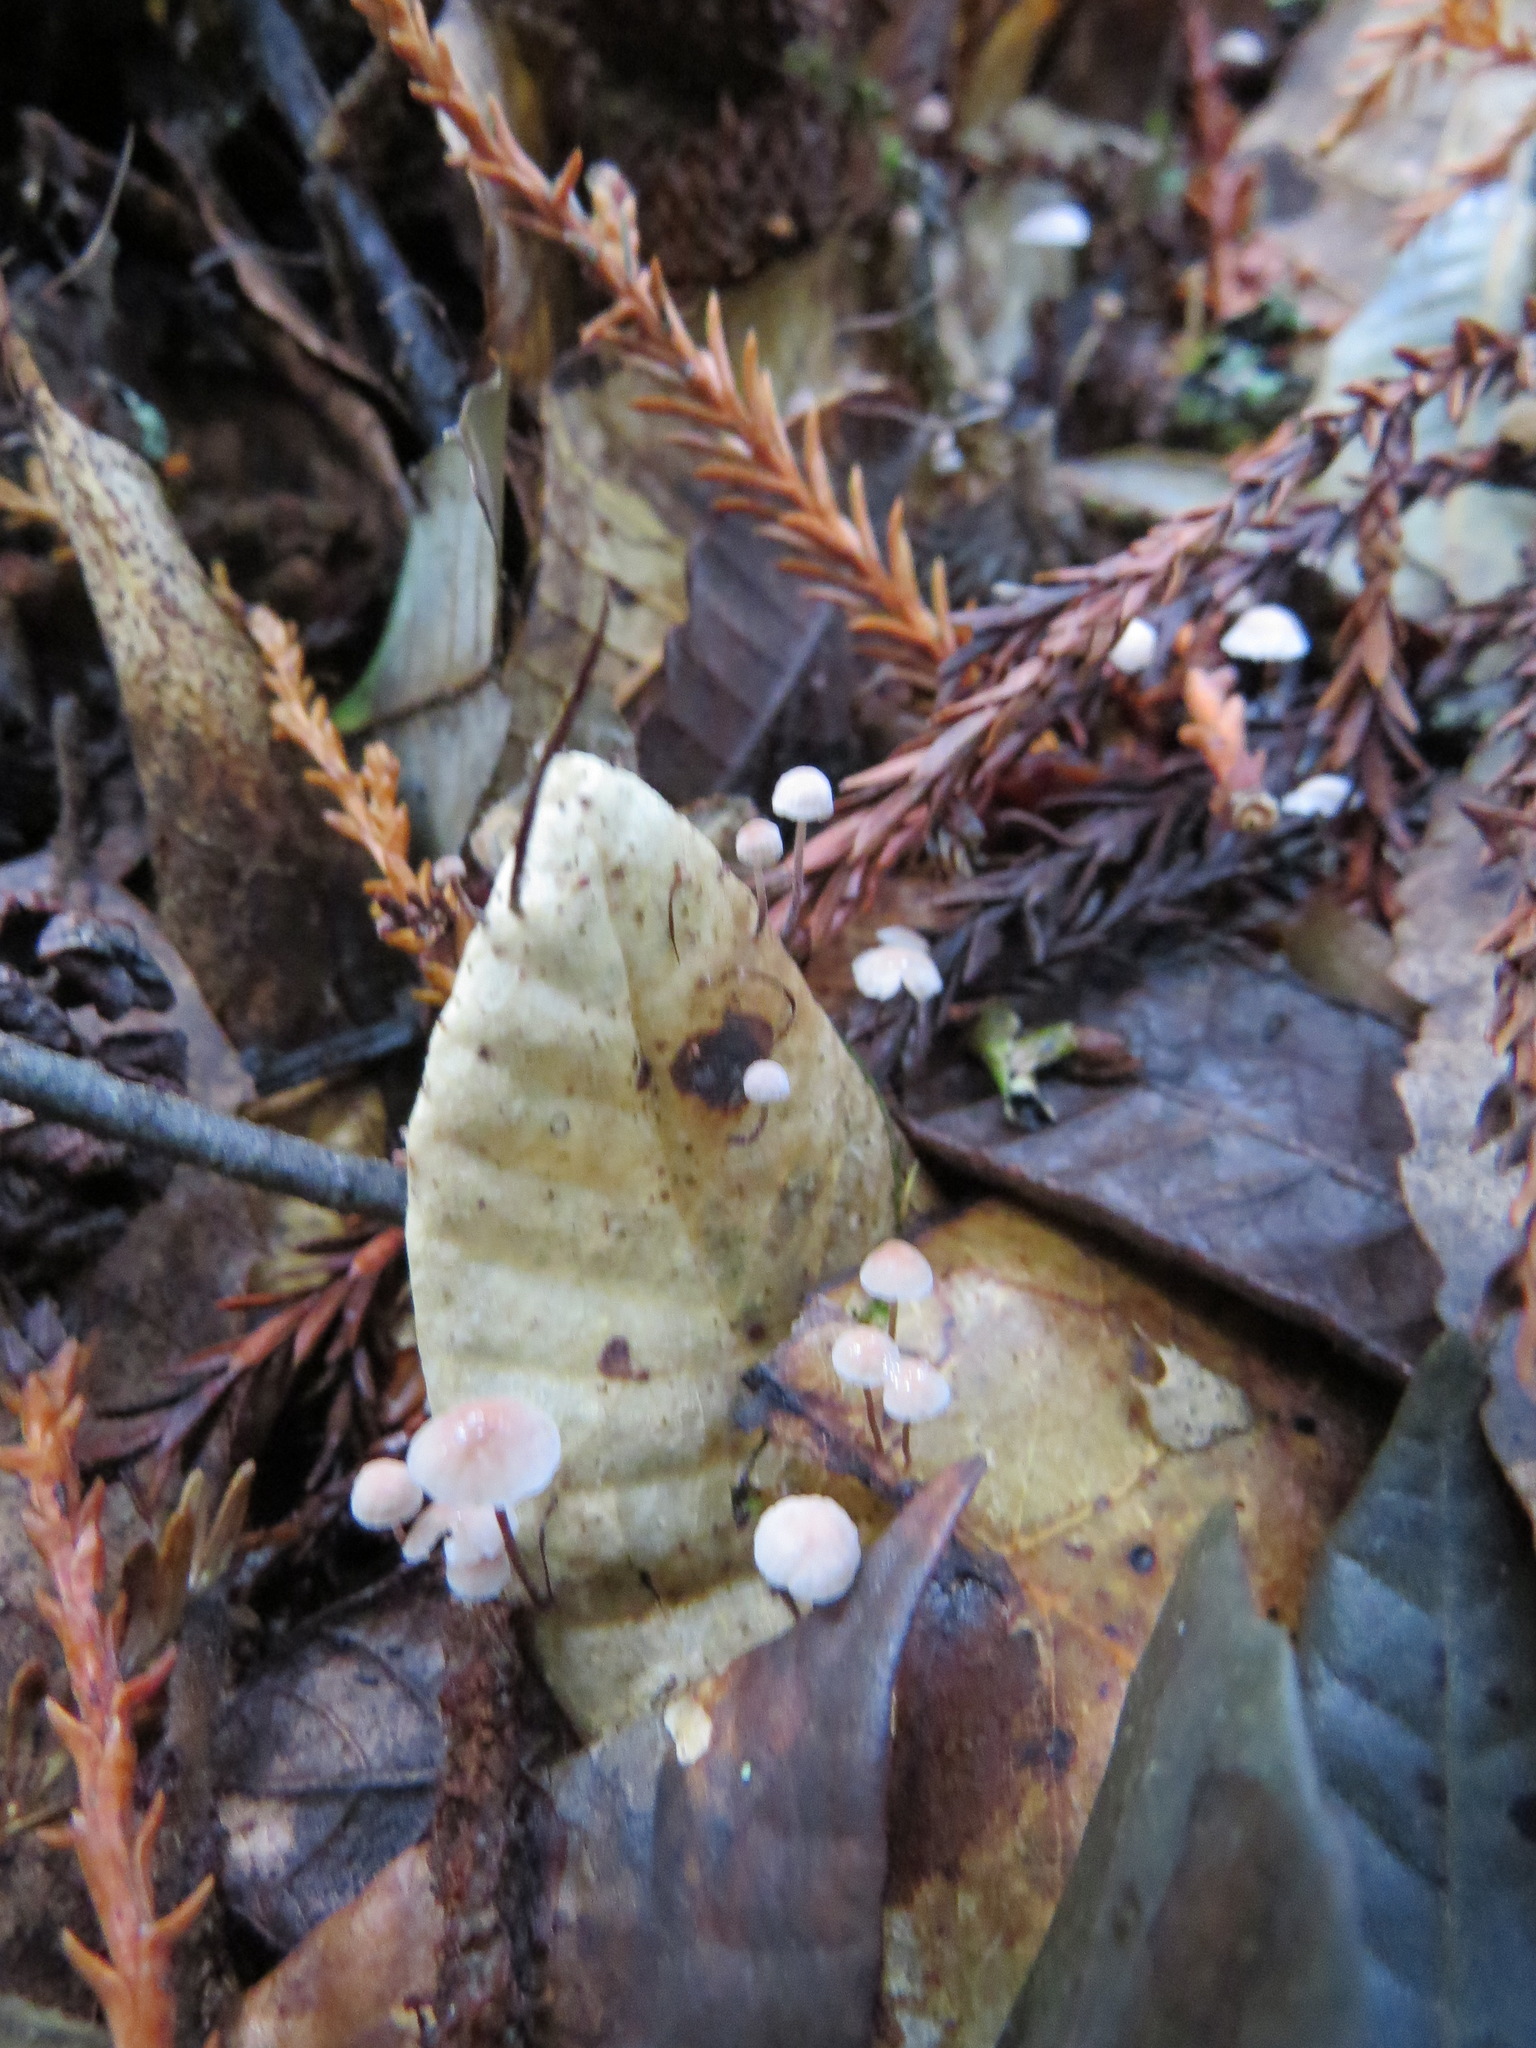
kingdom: Fungi
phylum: Basidiomycota
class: Agaricomycetes
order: Agaricales
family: Omphalotaceae
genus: Collybiopsis
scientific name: Collybiopsis quercophila
